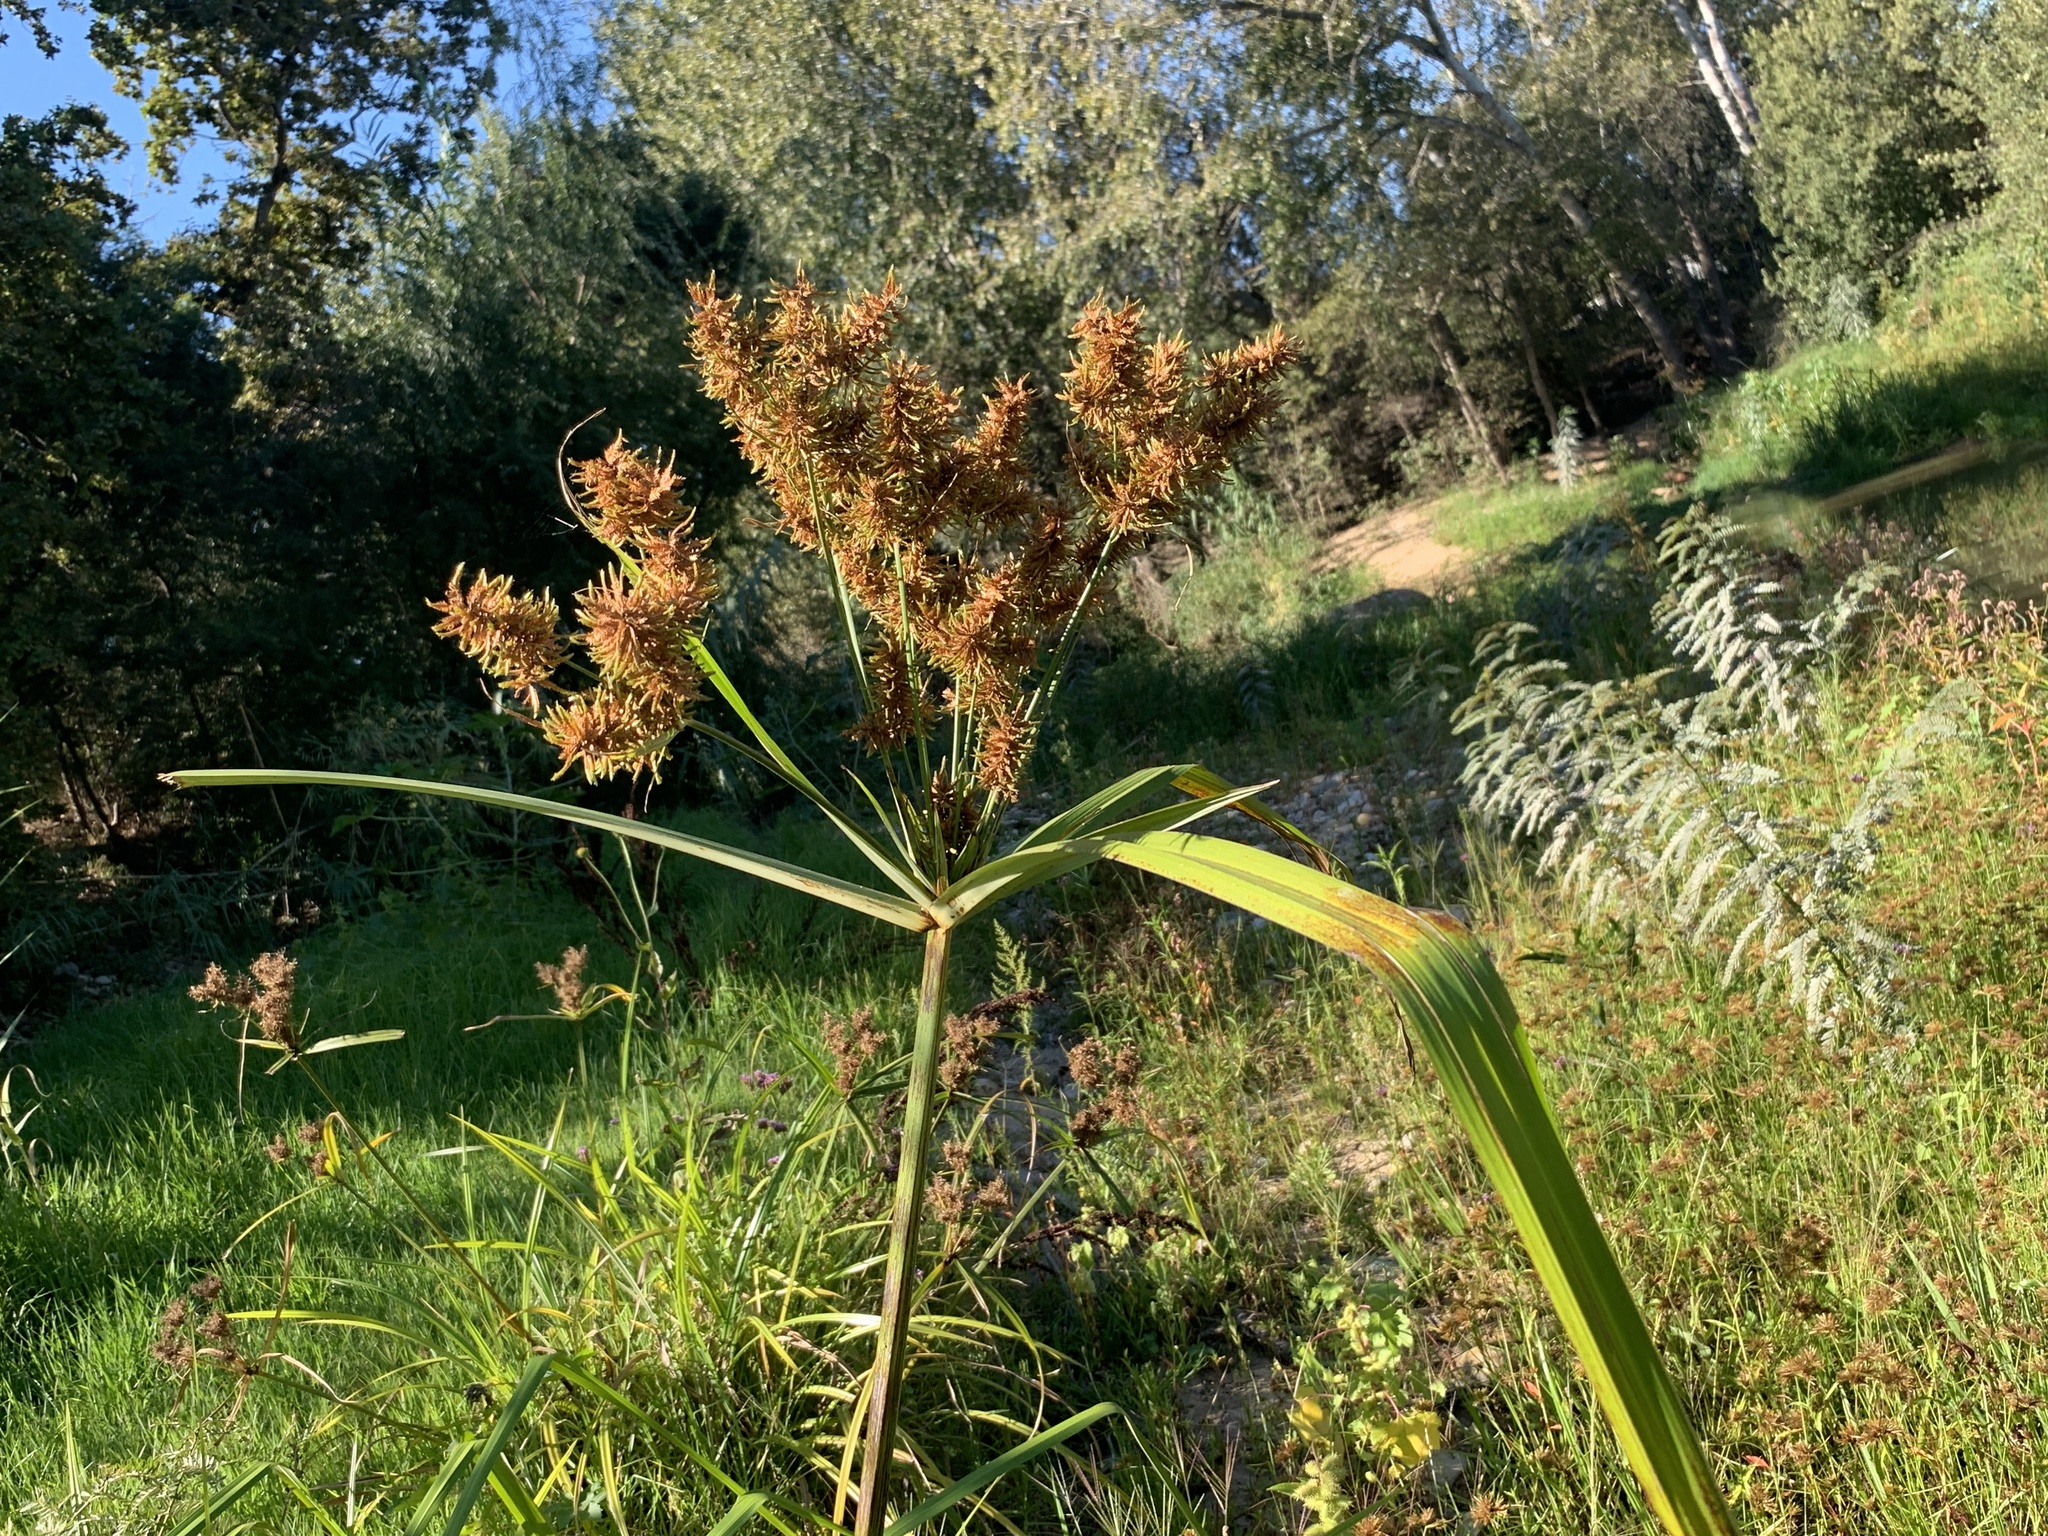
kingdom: Plantae
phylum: Tracheophyta
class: Liliopsida
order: Poales
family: Cyperaceae
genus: Cyperus
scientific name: Cyperus dives
